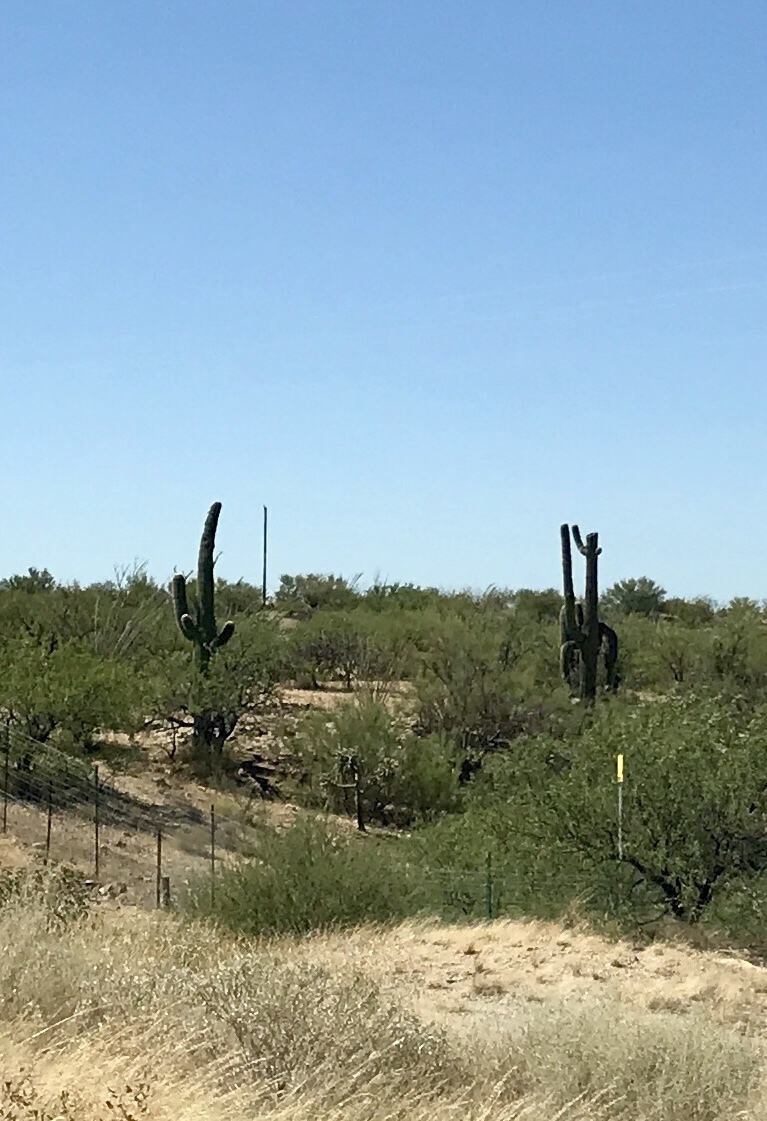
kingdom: Plantae
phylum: Tracheophyta
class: Magnoliopsida
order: Caryophyllales
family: Cactaceae
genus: Carnegiea
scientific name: Carnegiea gigantea
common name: Saguaro
